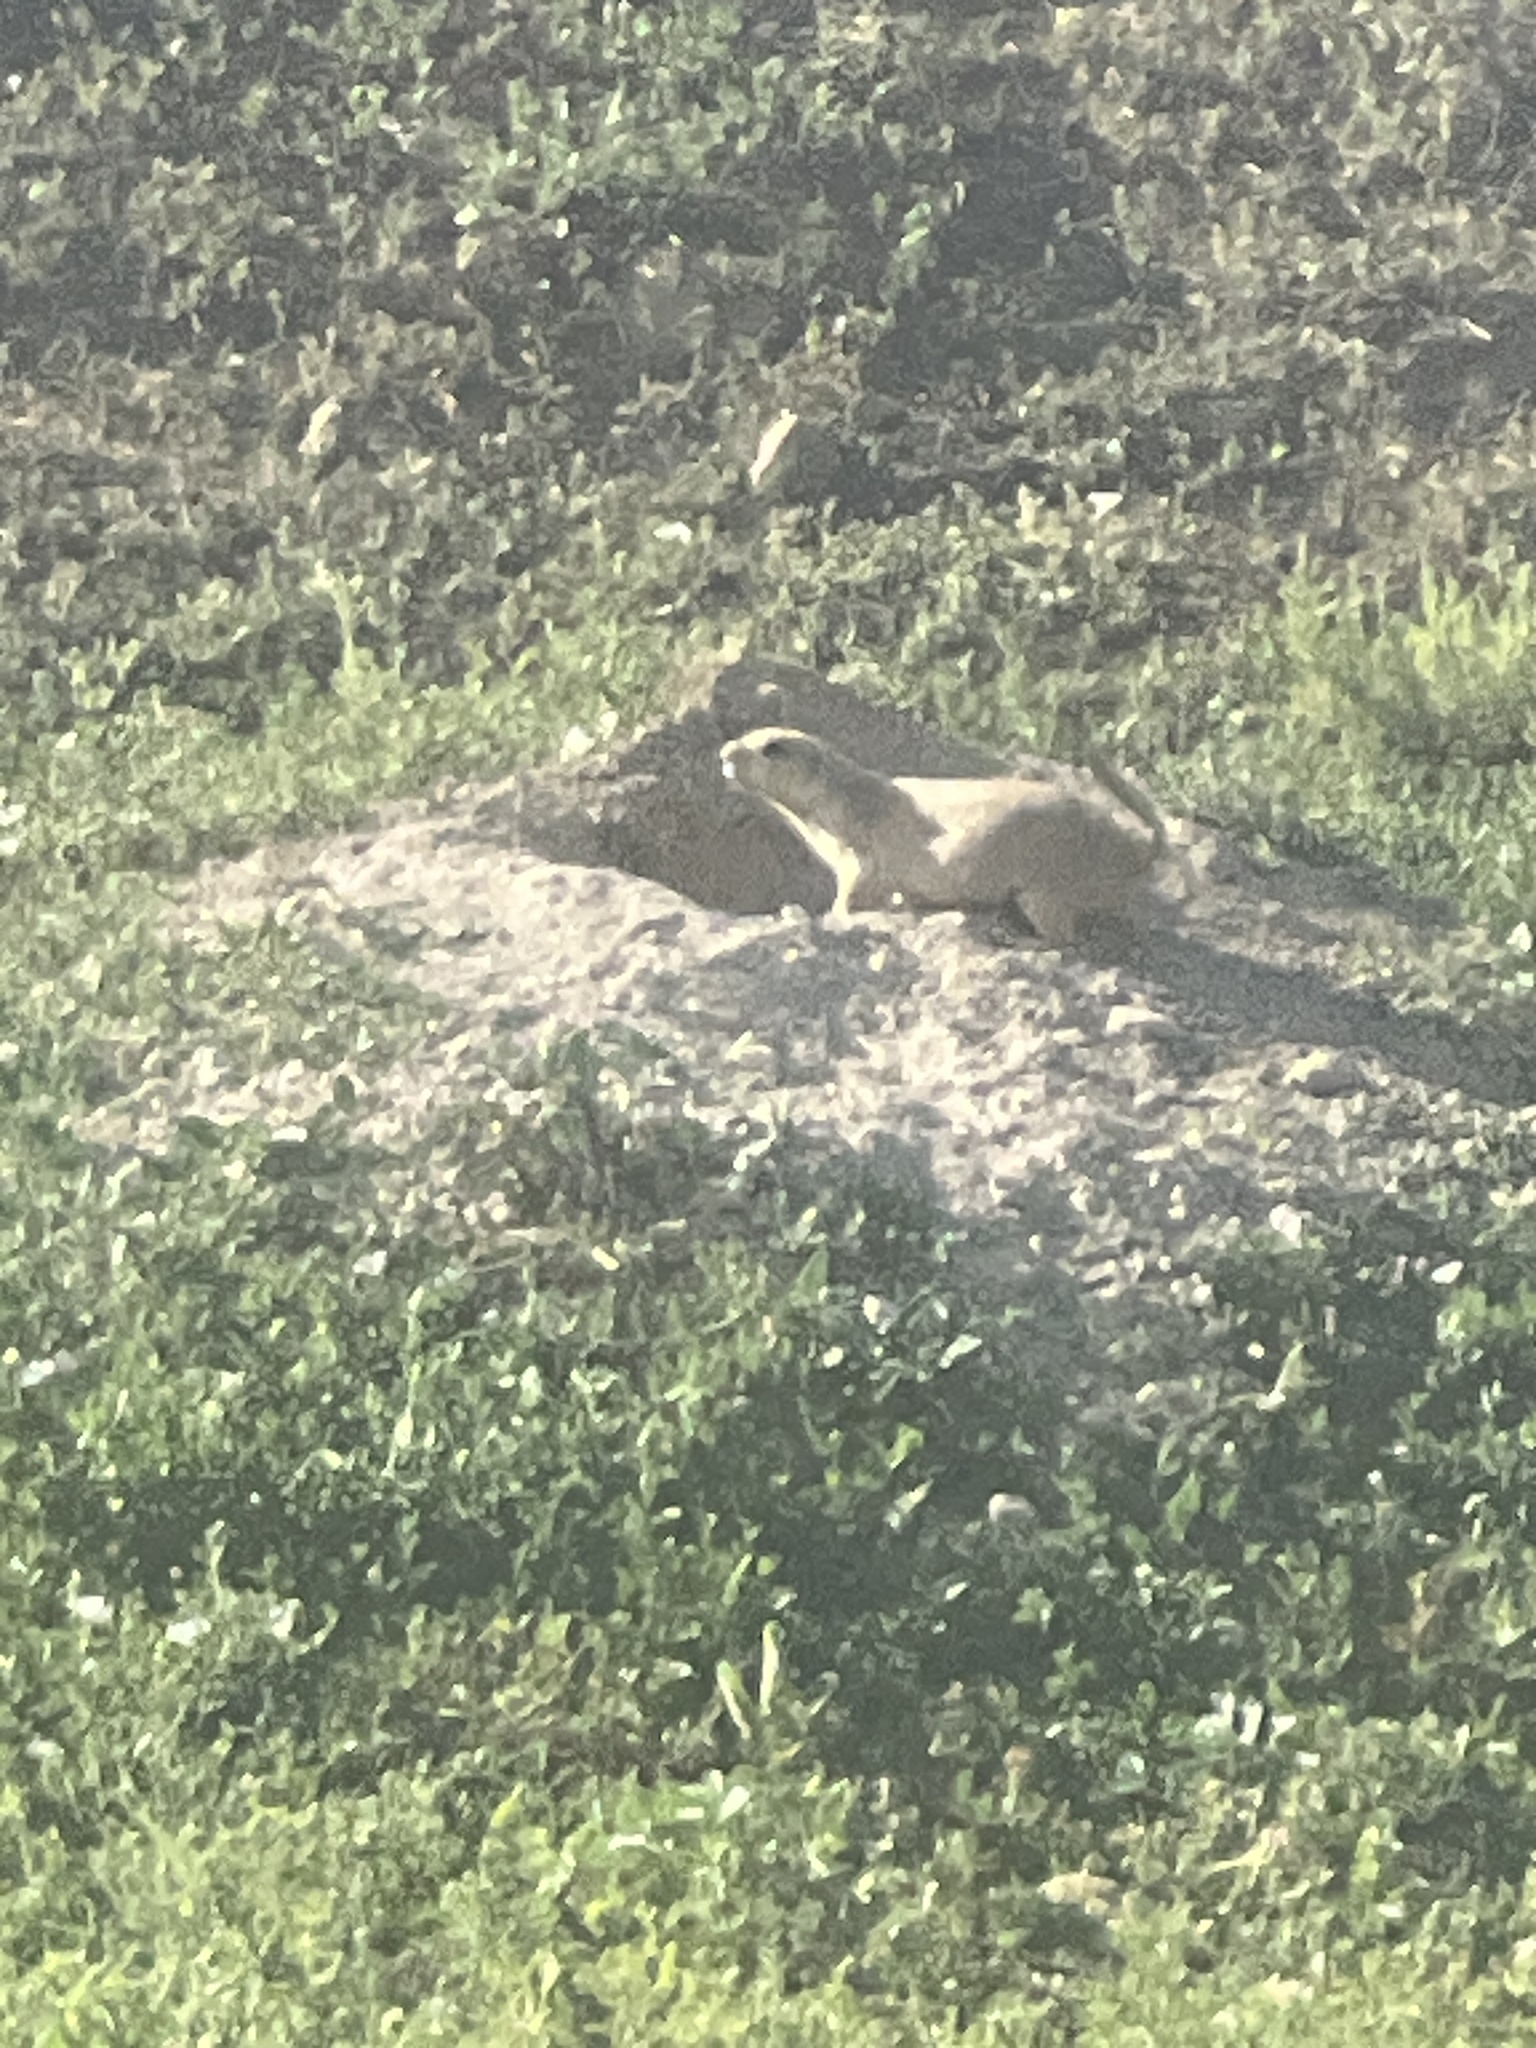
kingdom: Animalia
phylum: Chordata
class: Mammalia
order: Rodentia
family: Sciuridae
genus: Cynomys
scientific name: Cynomys ludovicianus
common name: Black-tailed prairie dog
